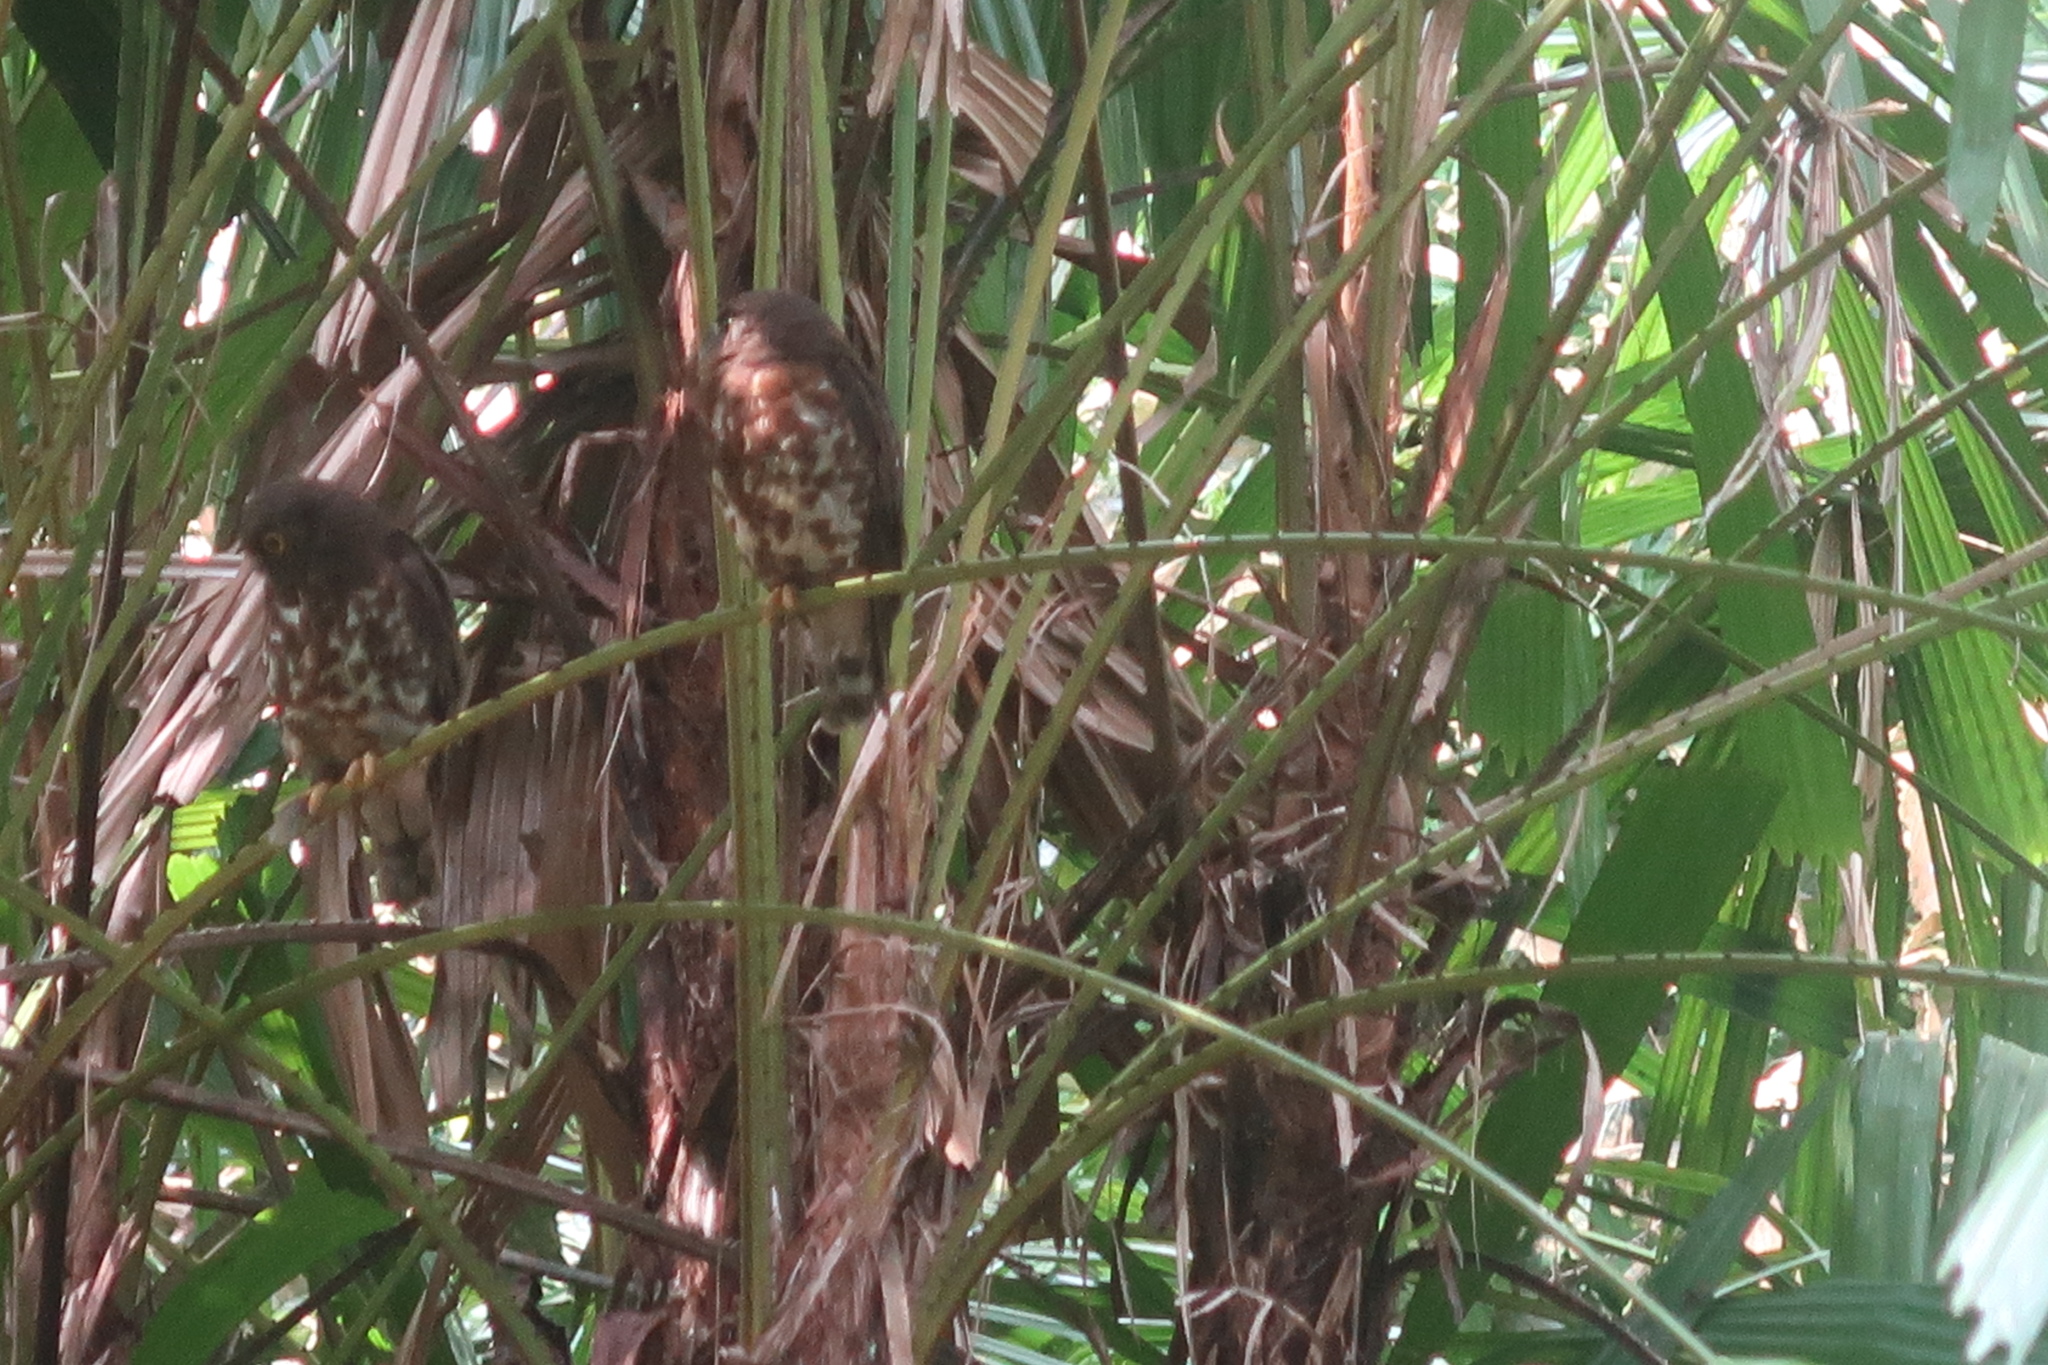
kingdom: Animalia
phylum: Chordata
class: Aves
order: Strigiformes
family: Strigidae
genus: Ninox
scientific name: Ninox scutulata
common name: Brown hawk-owl
